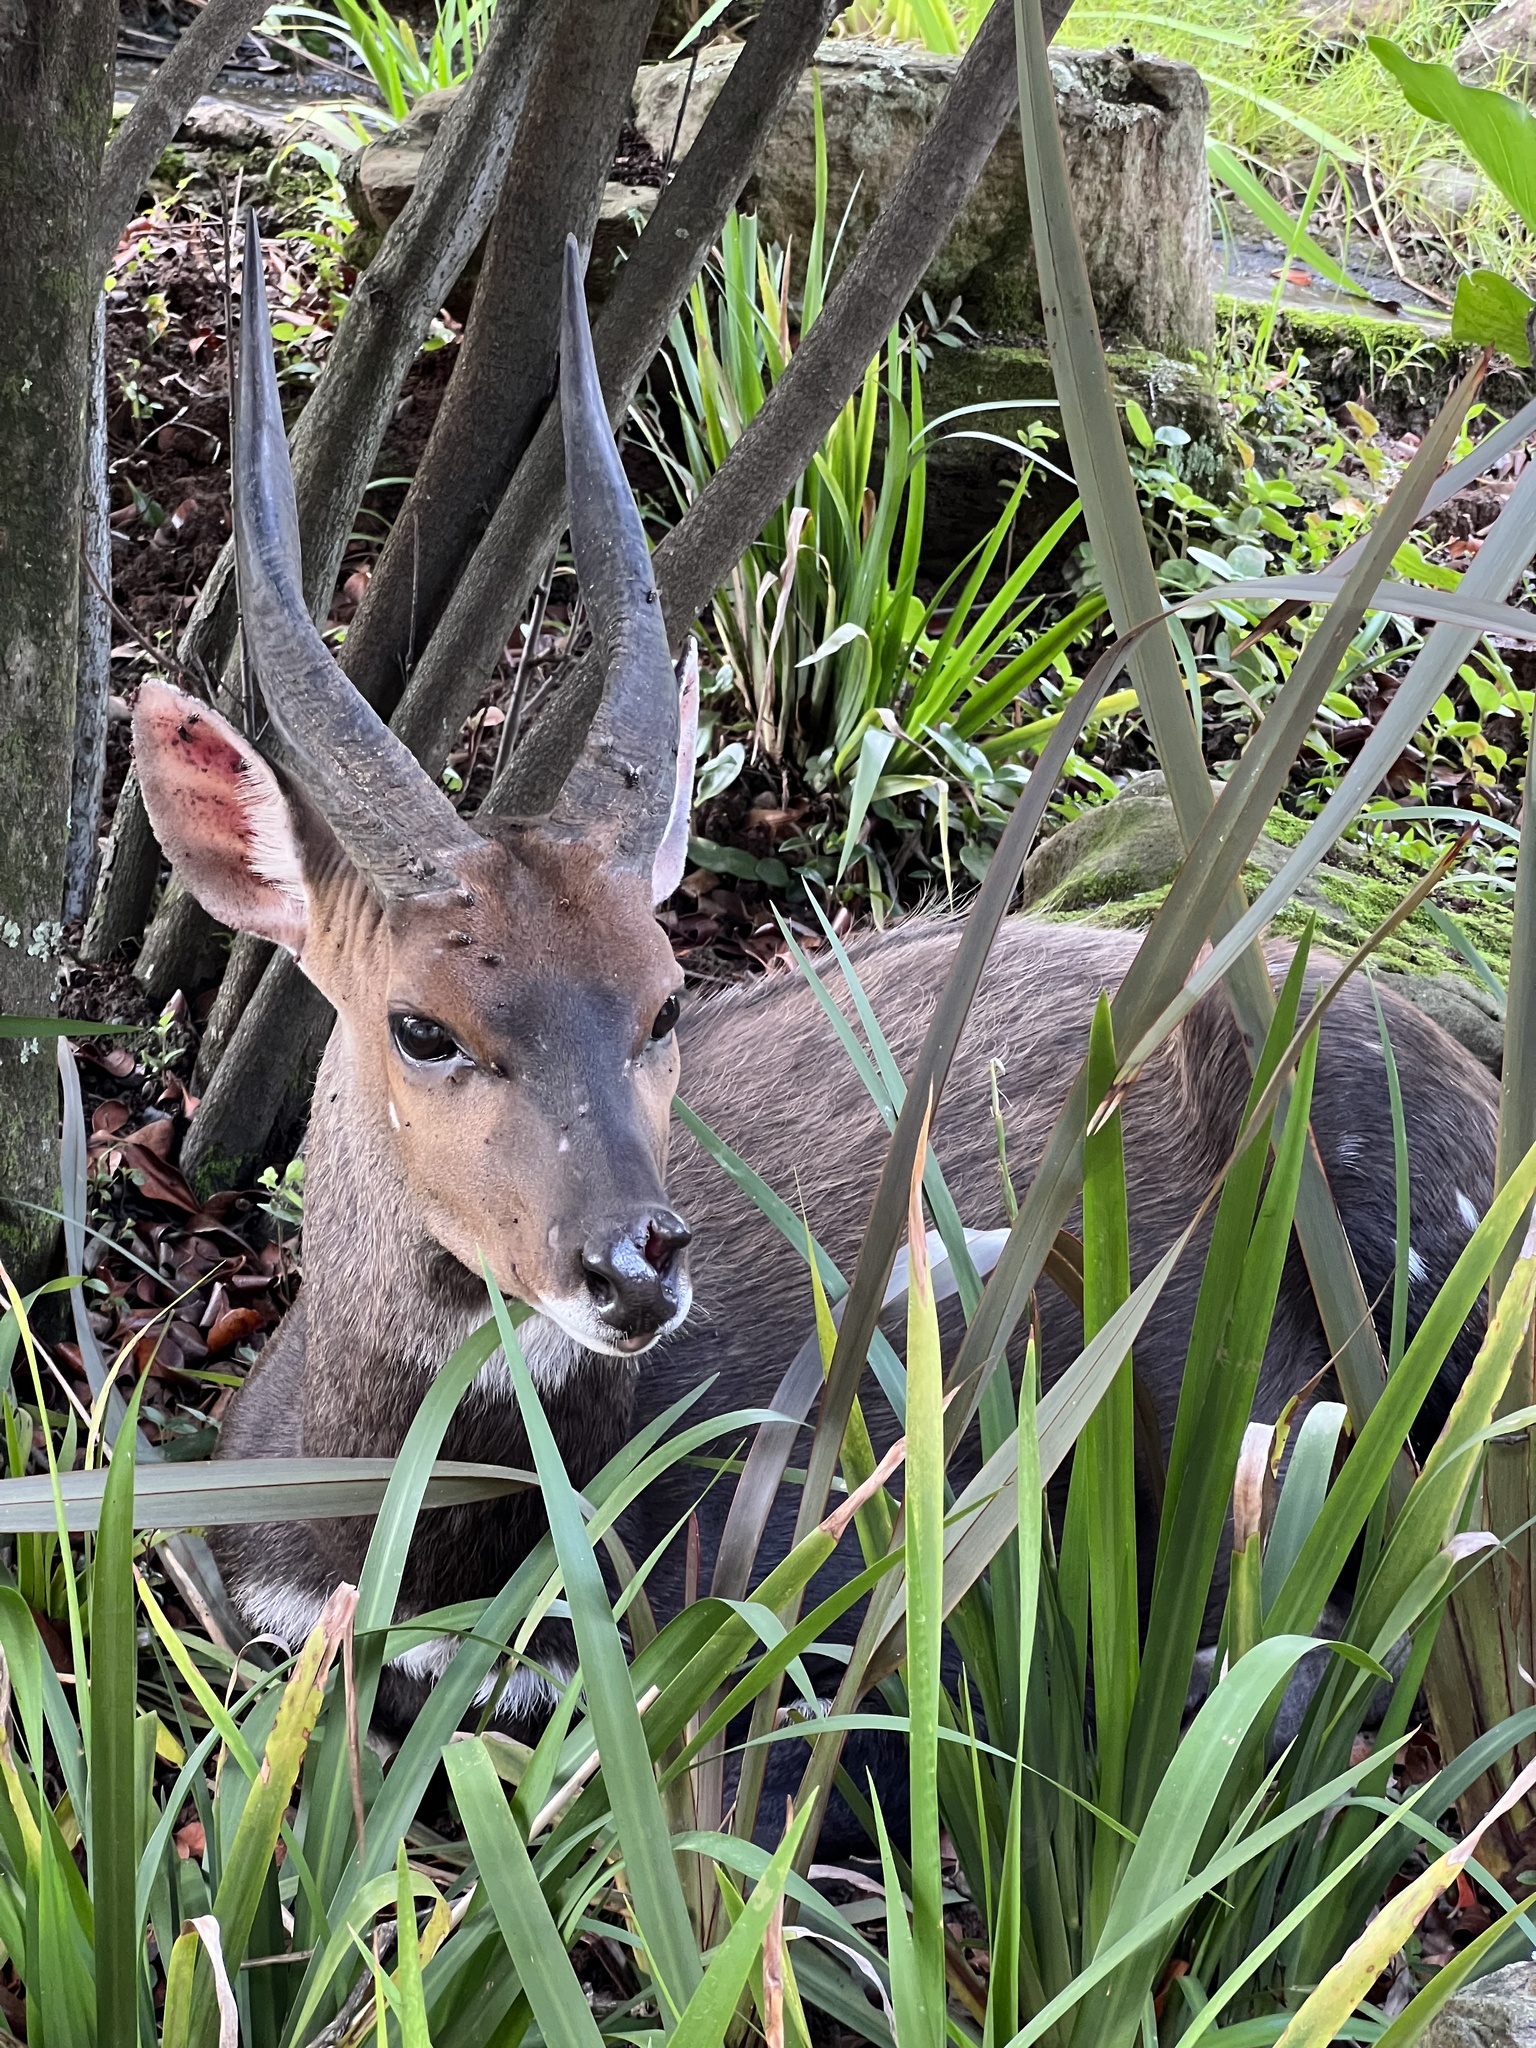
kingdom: Animalia
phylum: Chordata
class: Mammalia
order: Artiodactyla
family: Bovidae
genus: Tragelaphus
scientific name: Tragelaphus scriptus
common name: Bushbuck
